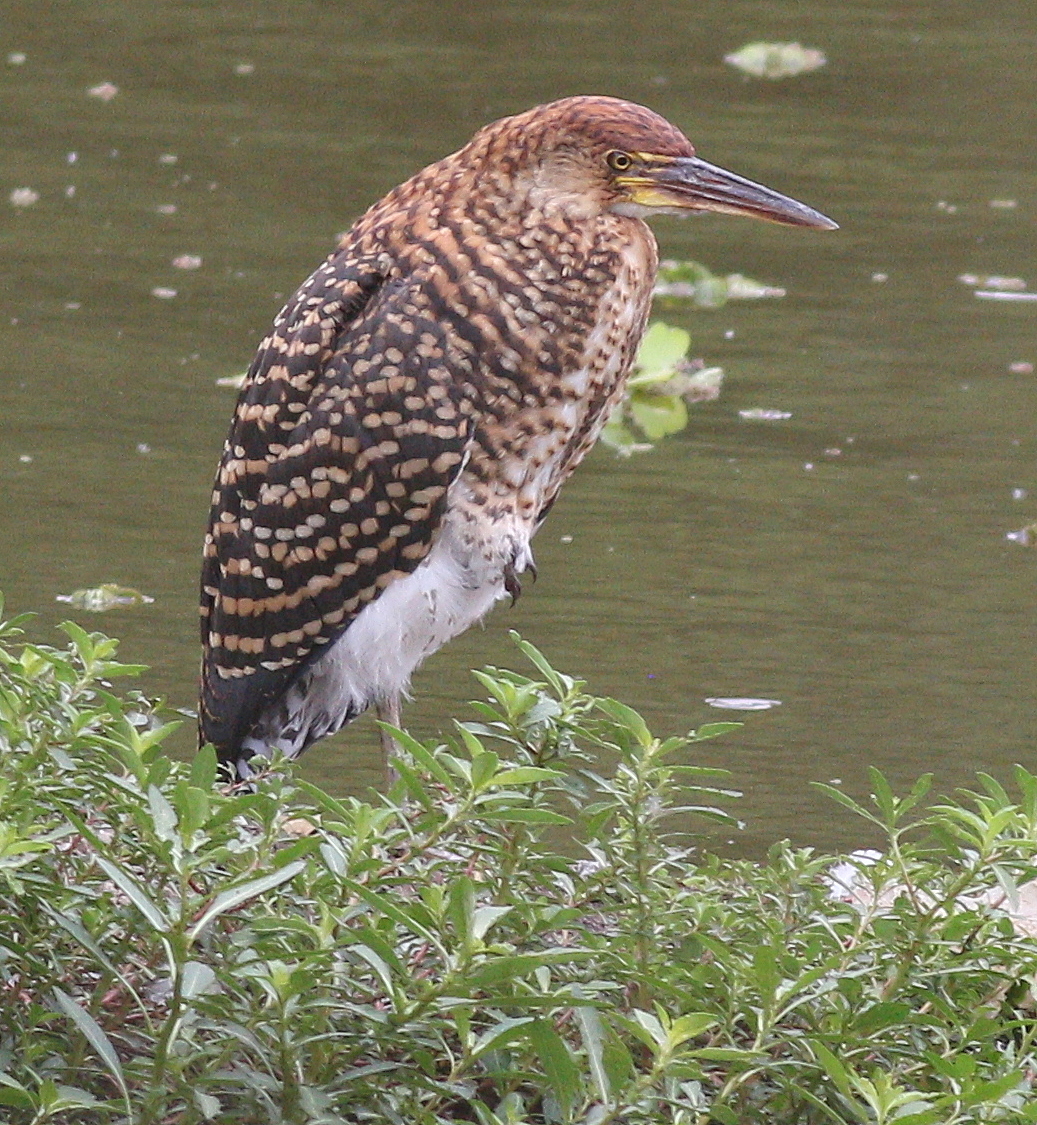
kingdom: Animalia
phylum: Chordata
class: Aves
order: Pelecaniformes
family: Ardeidae
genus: Tigrisoma
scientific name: Tigrisoma lineatum
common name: Rufescent tiger-heron
